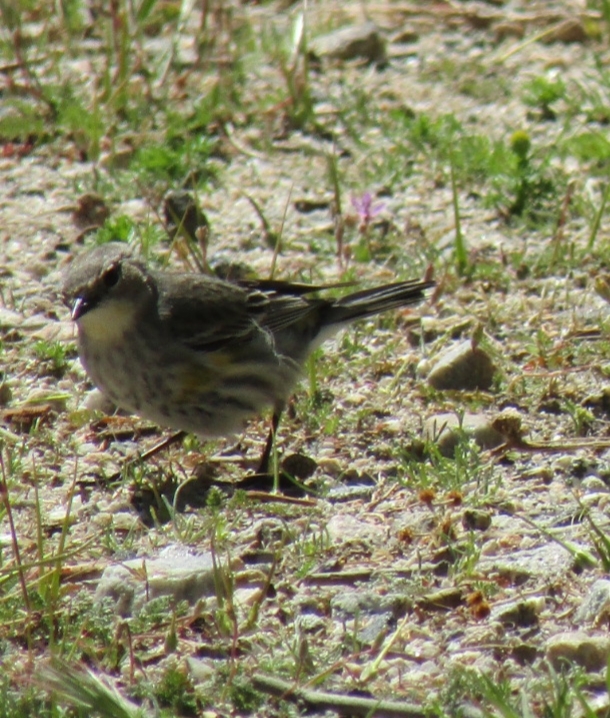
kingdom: Animalia
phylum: Chordata
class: Aves
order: Passeriformes
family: Parulidae
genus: Setophaga
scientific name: Setophaga coronata
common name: Myrtle warbler
